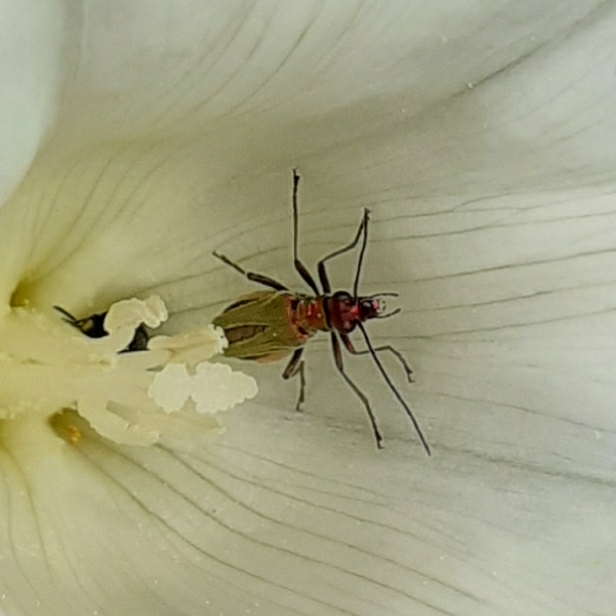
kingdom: Animalia
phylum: Arthropoda
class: Insecta
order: Coleoptera
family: Oedemeridae
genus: Oedemera
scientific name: Oedemera nobilis
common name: Swollen-thighed beetle
